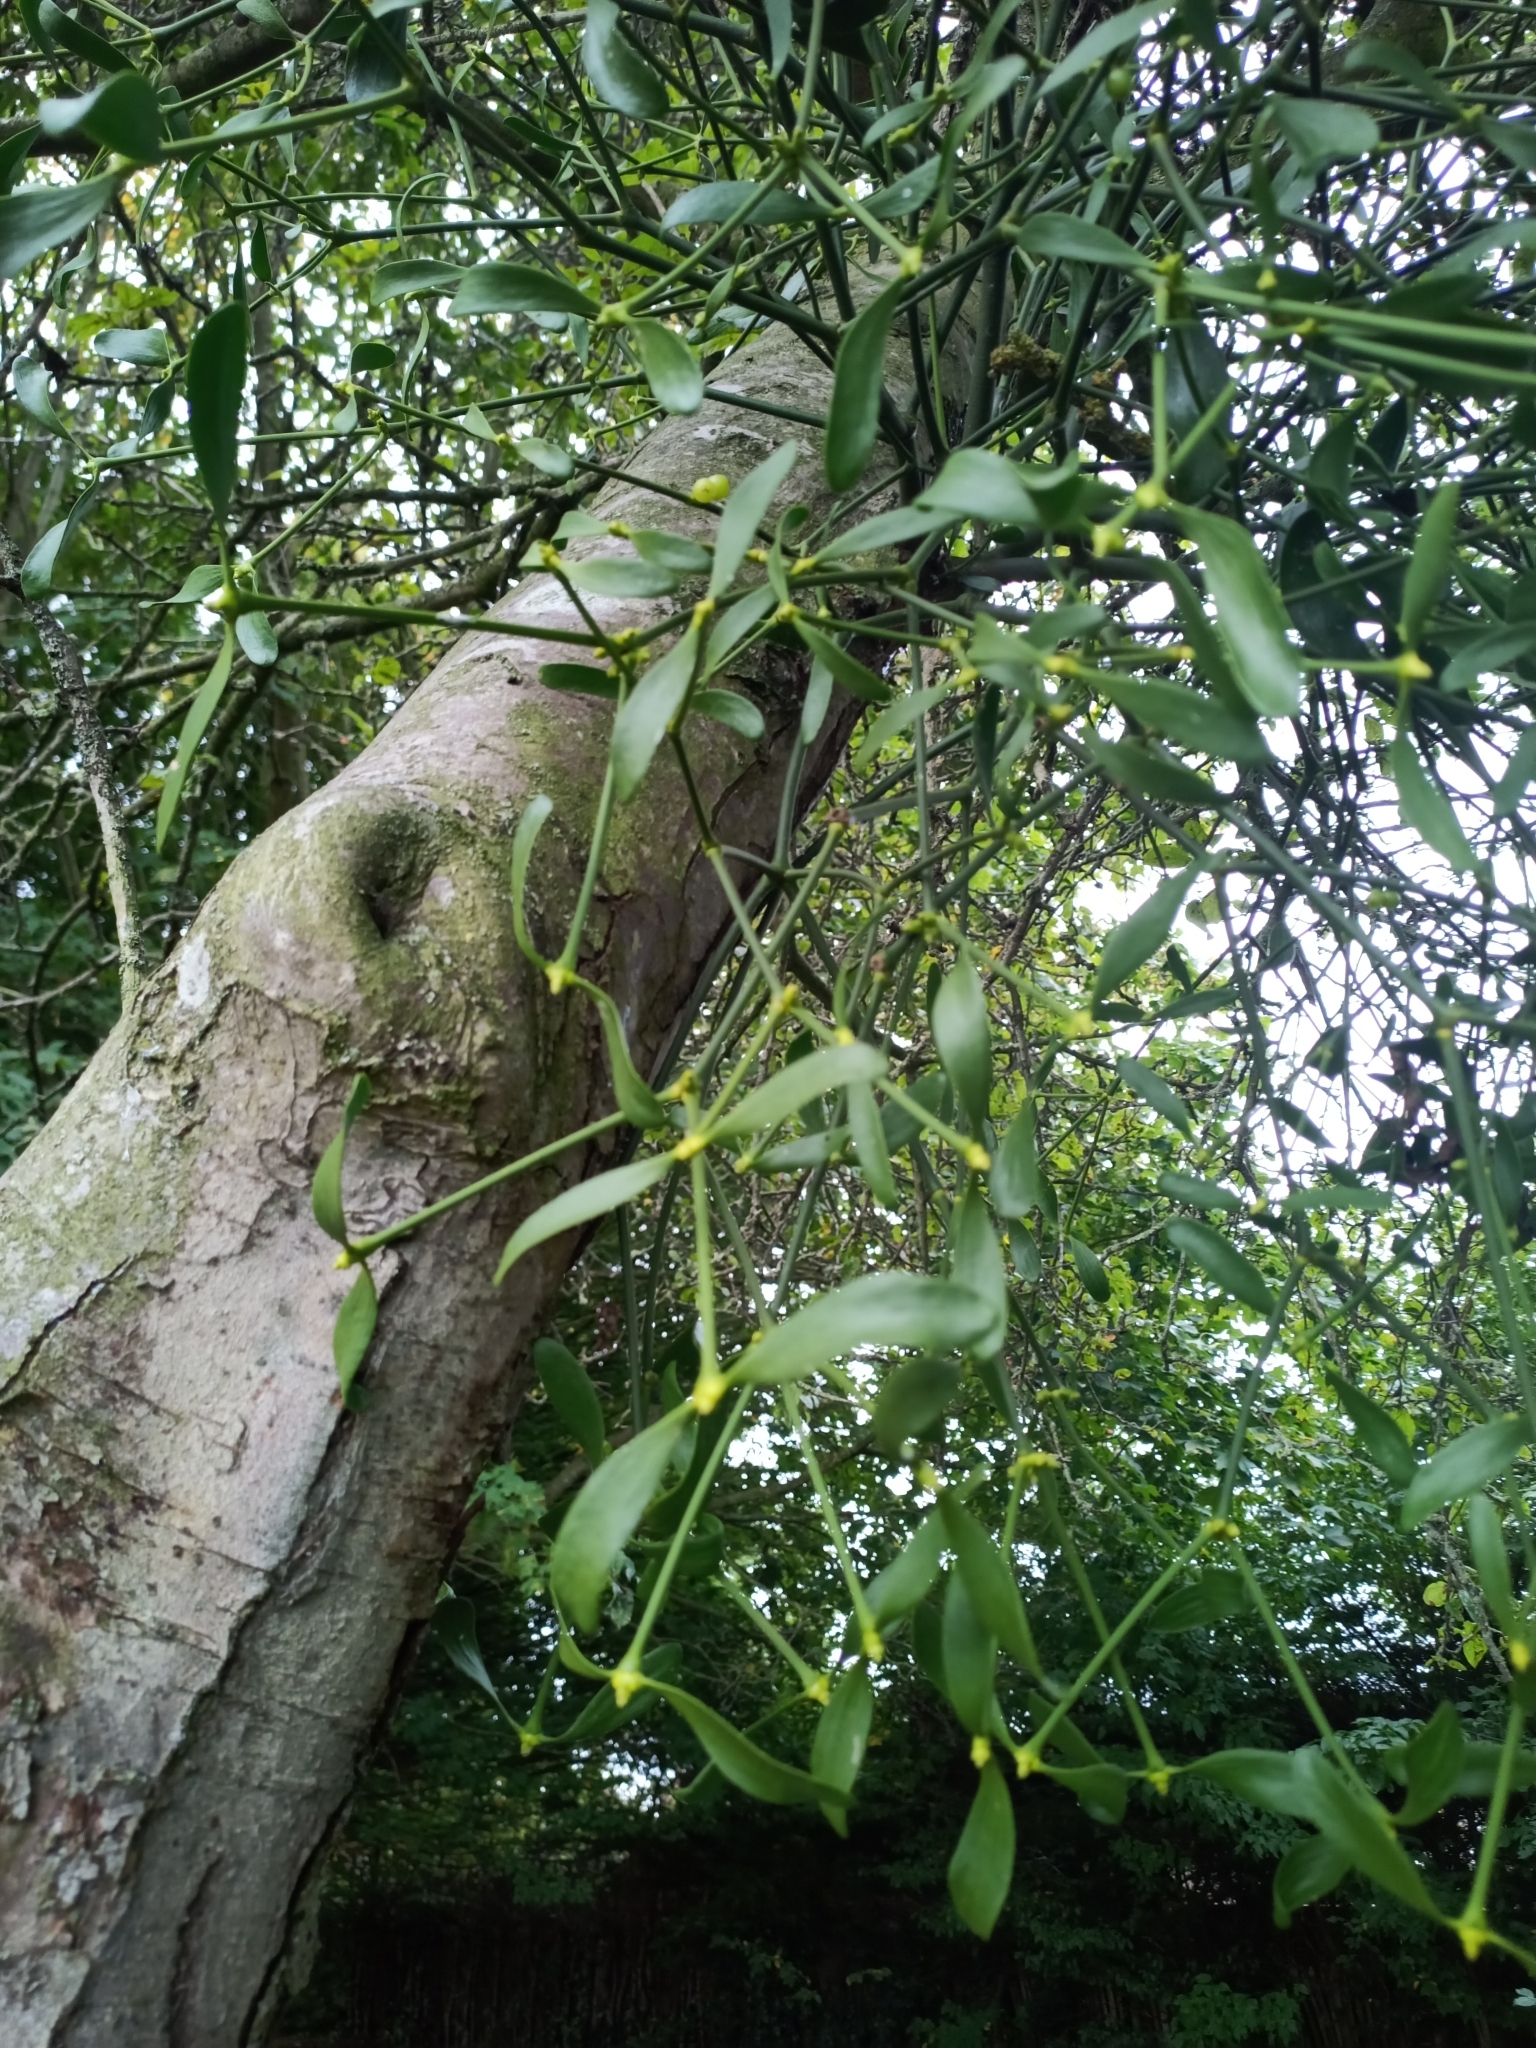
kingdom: Plantae
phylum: Tracheophyta
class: Magnoliopsida
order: Santalales
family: Viscaceae
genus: Viscum
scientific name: Viscum album
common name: Mistletoe
